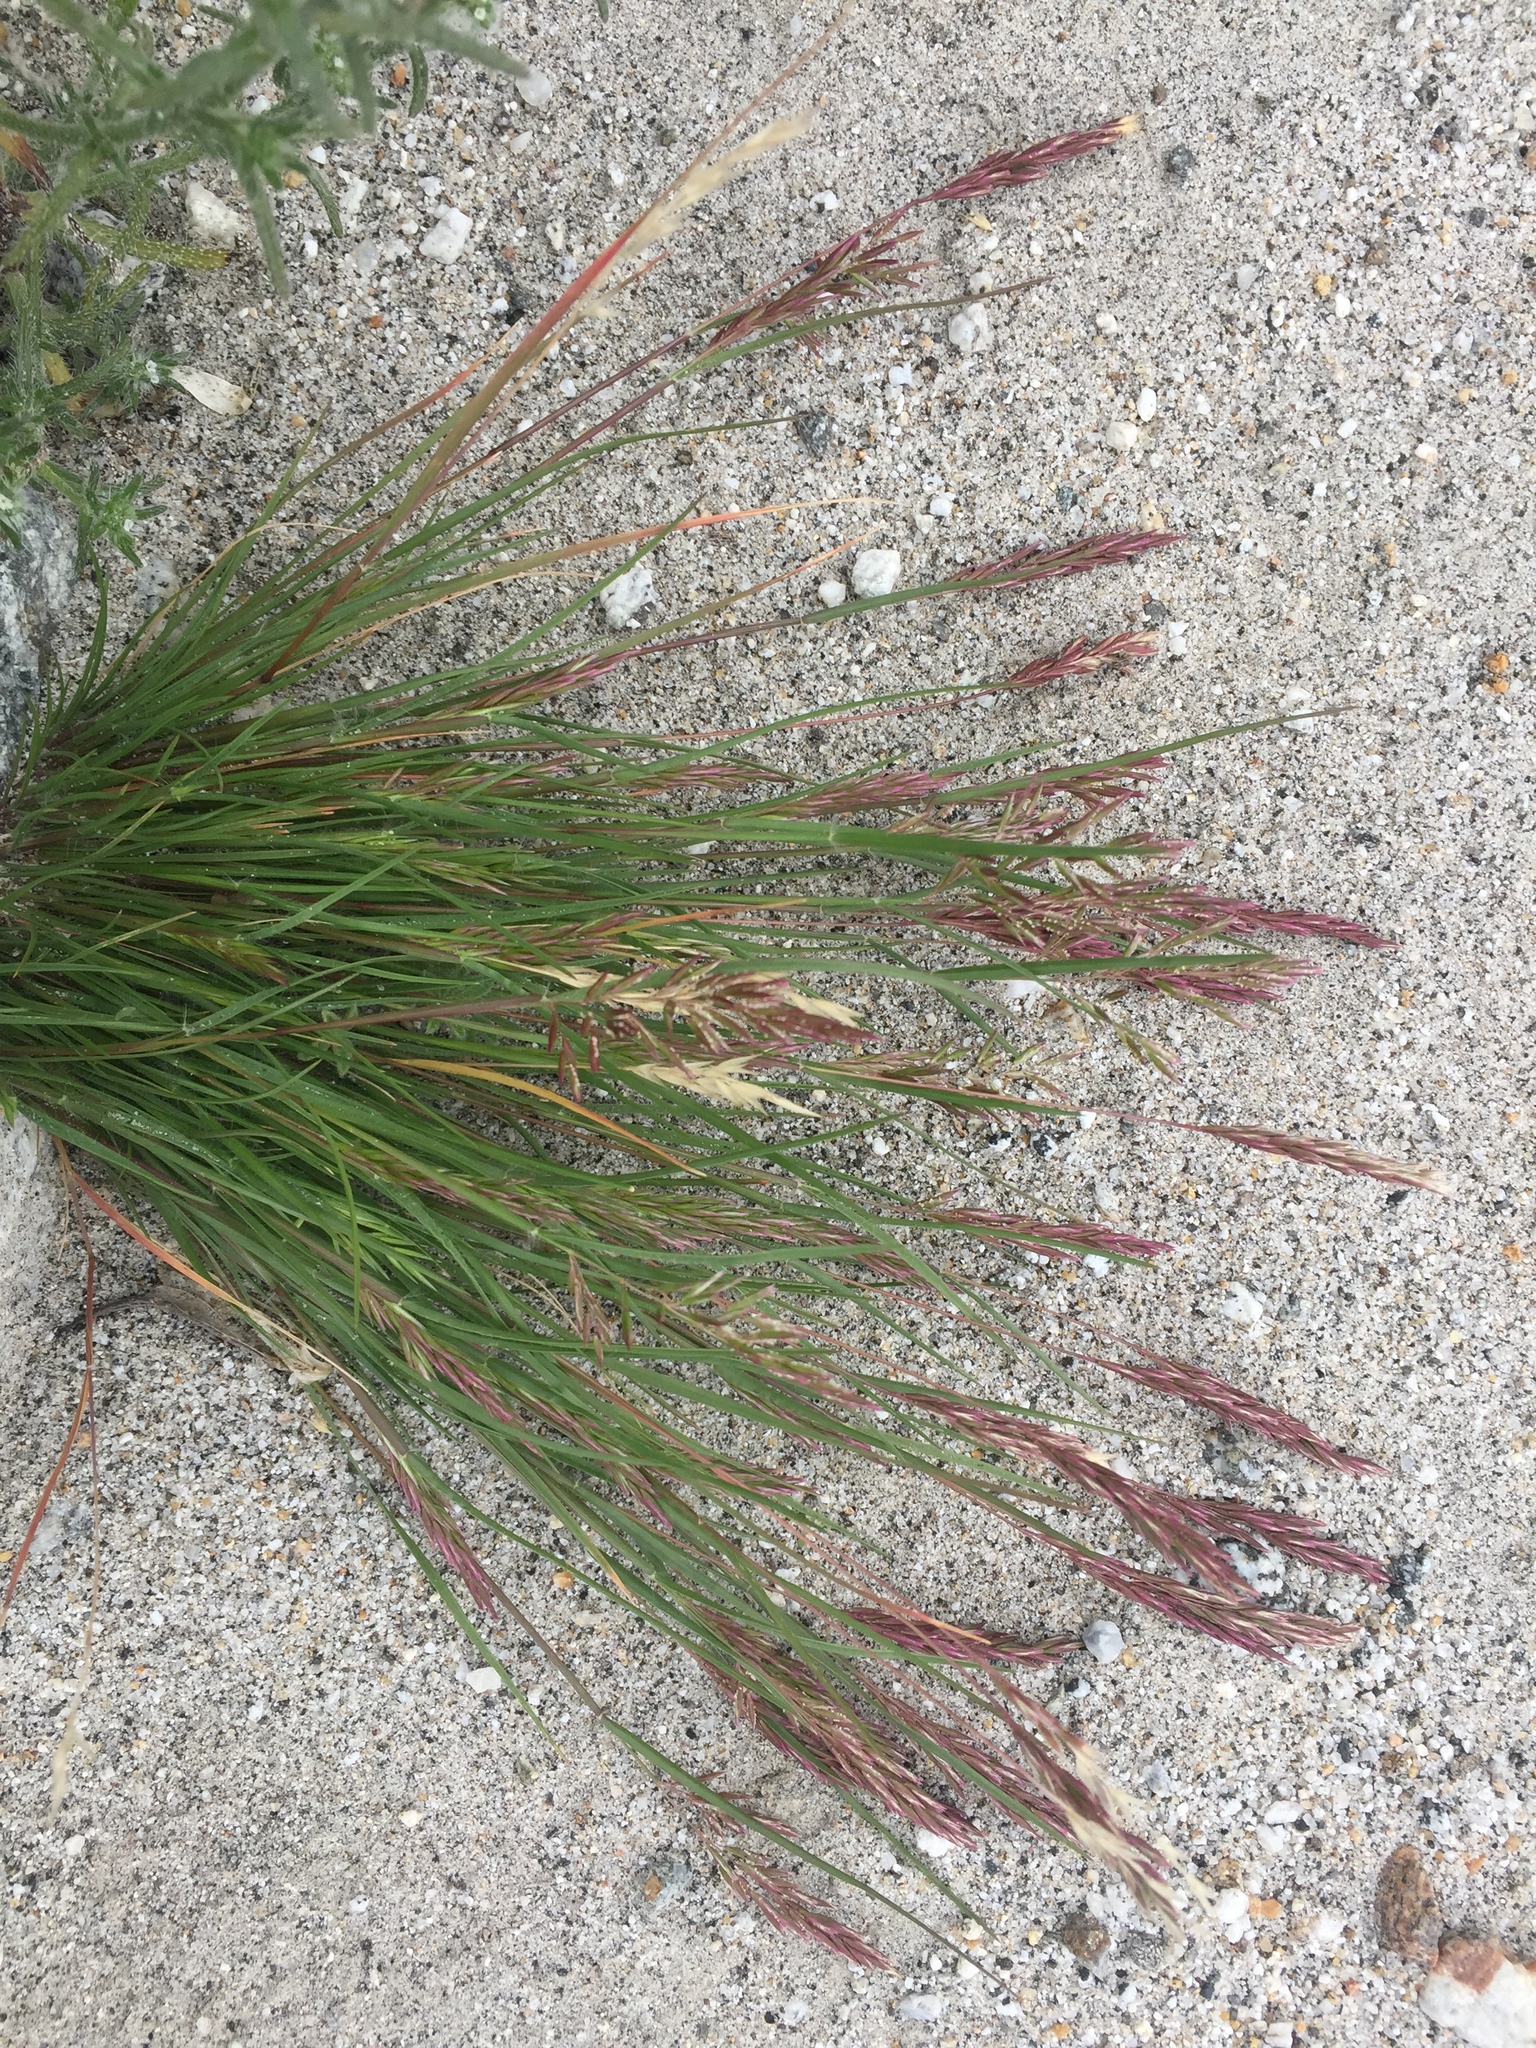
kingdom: Plantae
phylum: Tracheophyta
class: Liliopsida
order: Poales
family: Poaceae
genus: Schismus
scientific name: Schismus arabicus
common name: Arabian schismus
